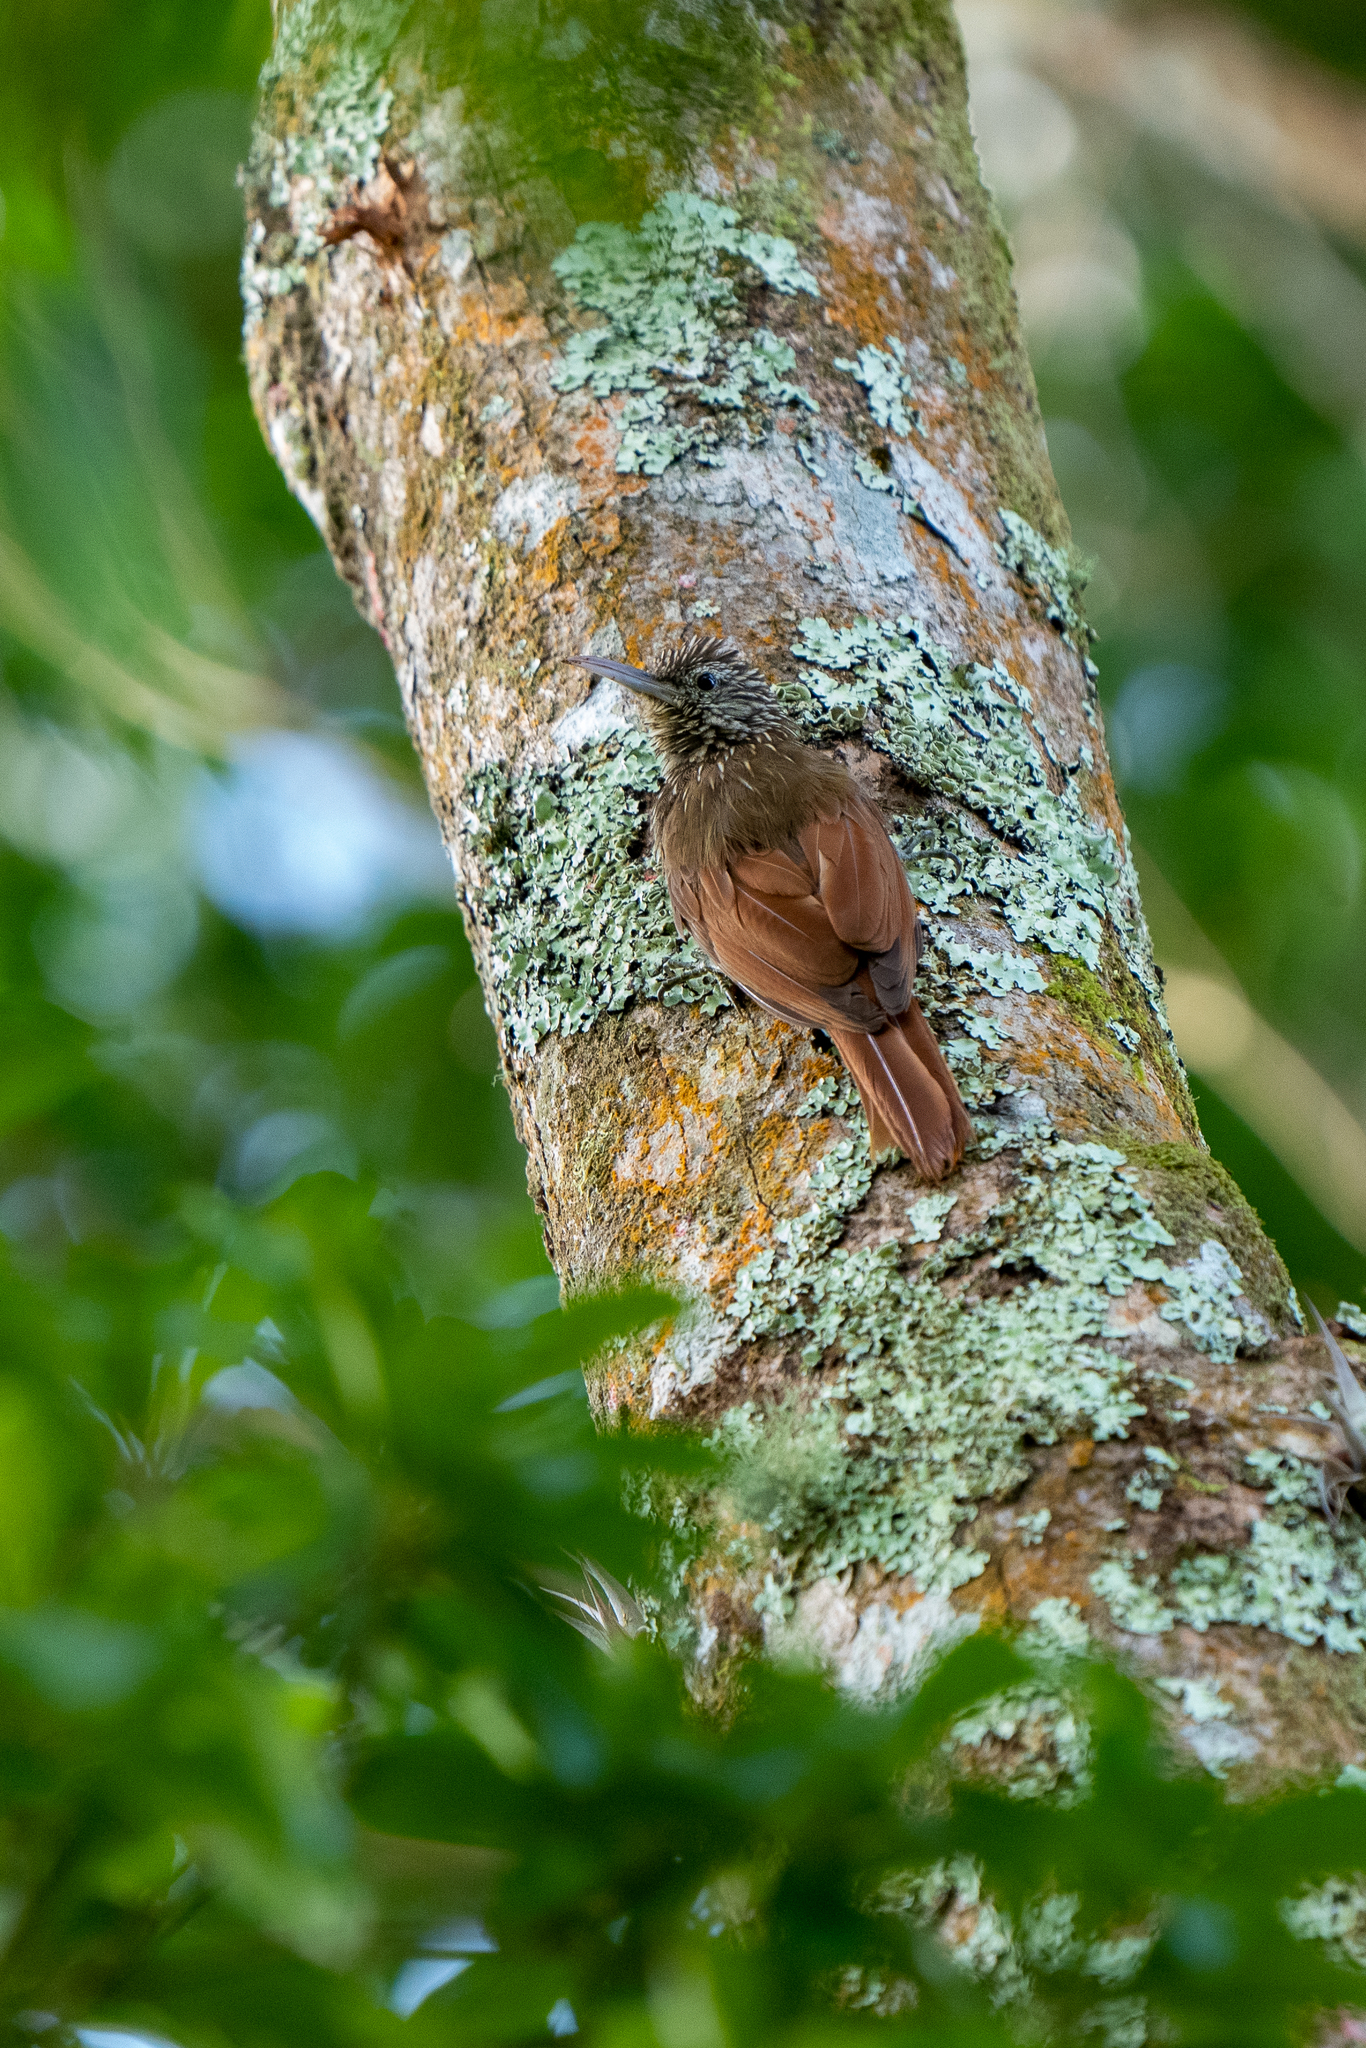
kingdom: Animalia
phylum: Chordata
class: Aves
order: Passeriformes
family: Furnariidae
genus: Lepidocolaptes
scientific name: Lepidocolaptes souleyetii
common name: Streak-headed woodcreeper
